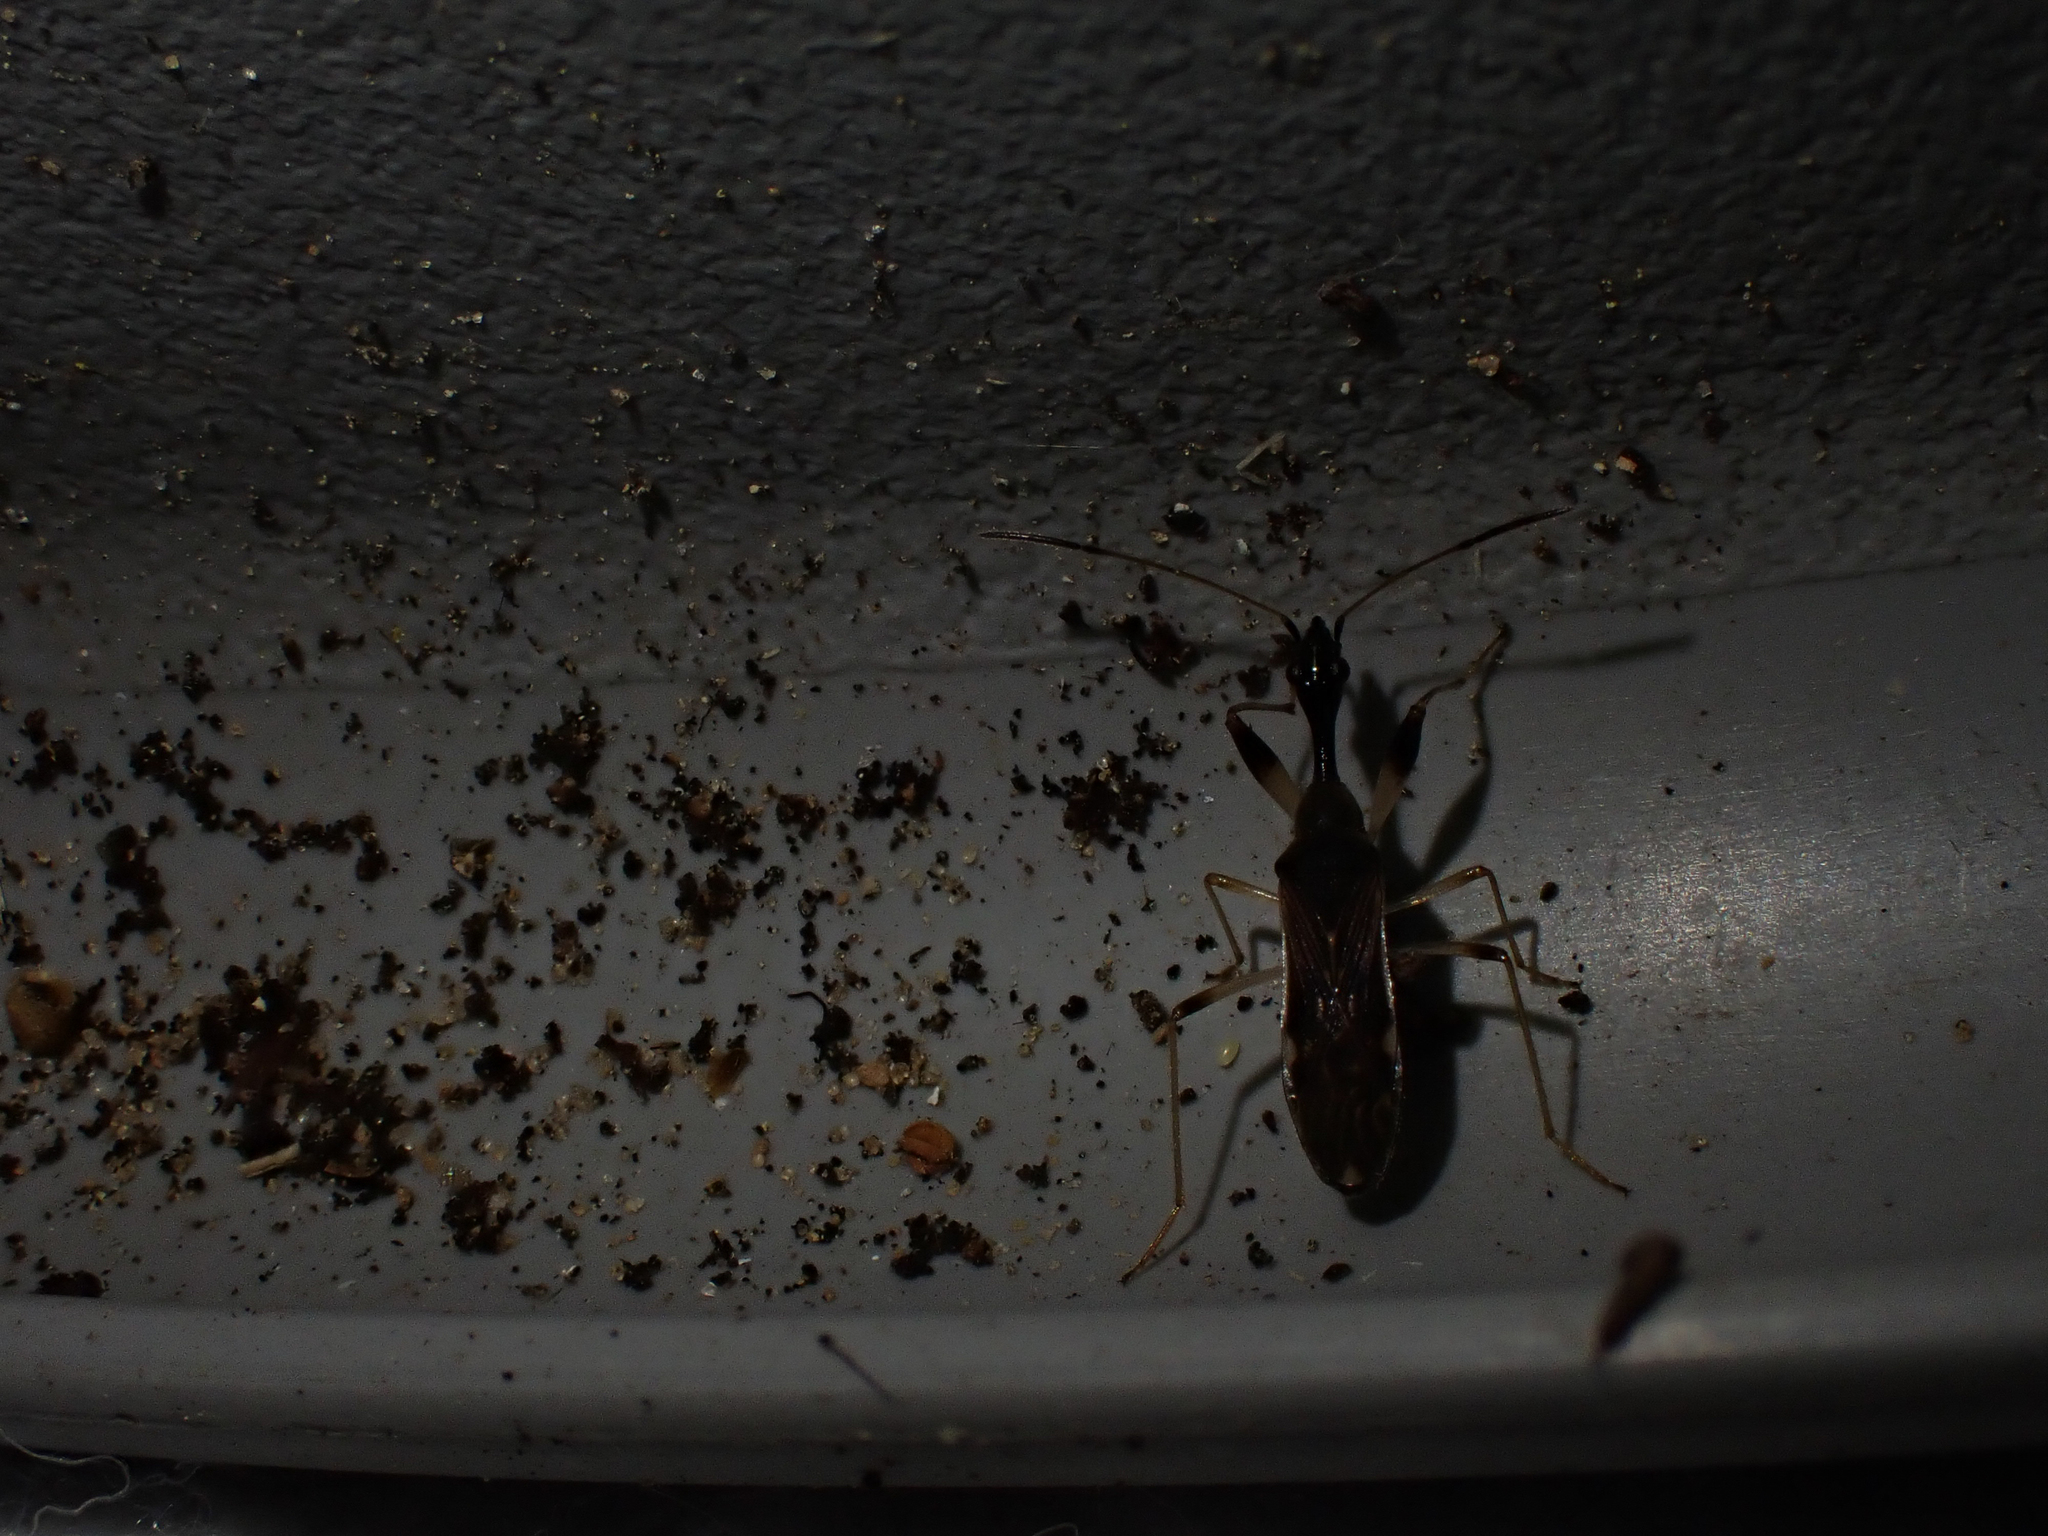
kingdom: Animalia
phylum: Arthropoda
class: Insecta
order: Hemiptera
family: Rhyparochromidae
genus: Myodocha
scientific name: Myodocha serripes
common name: Long-necked seed bug
